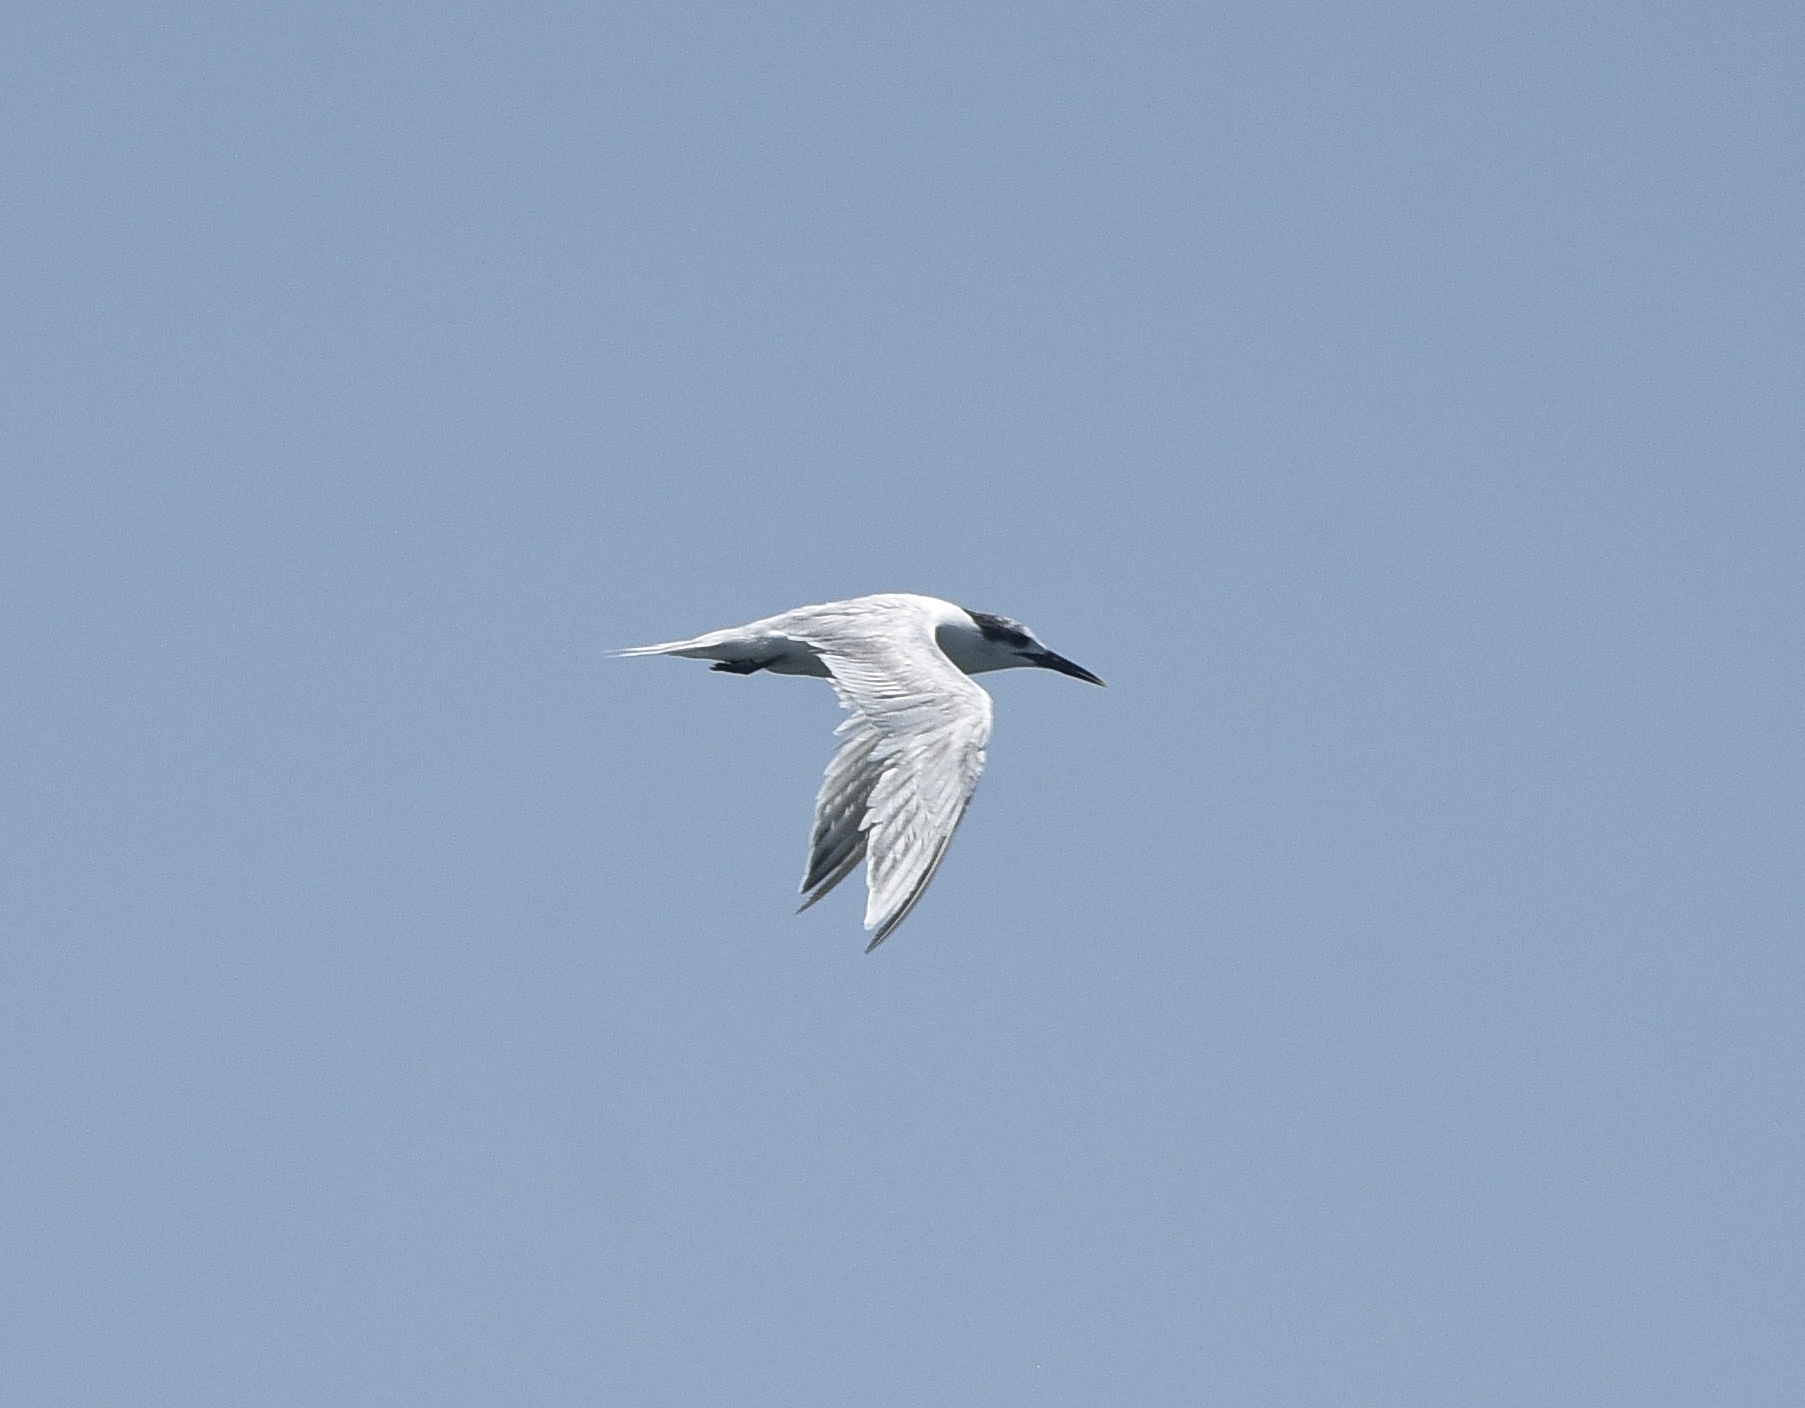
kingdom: Animalia
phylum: Chordata
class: Aves
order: Charadriiformes
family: Laridae
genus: Thalasseus
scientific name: Thalasseus sandvicensis
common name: Sandwich tern
